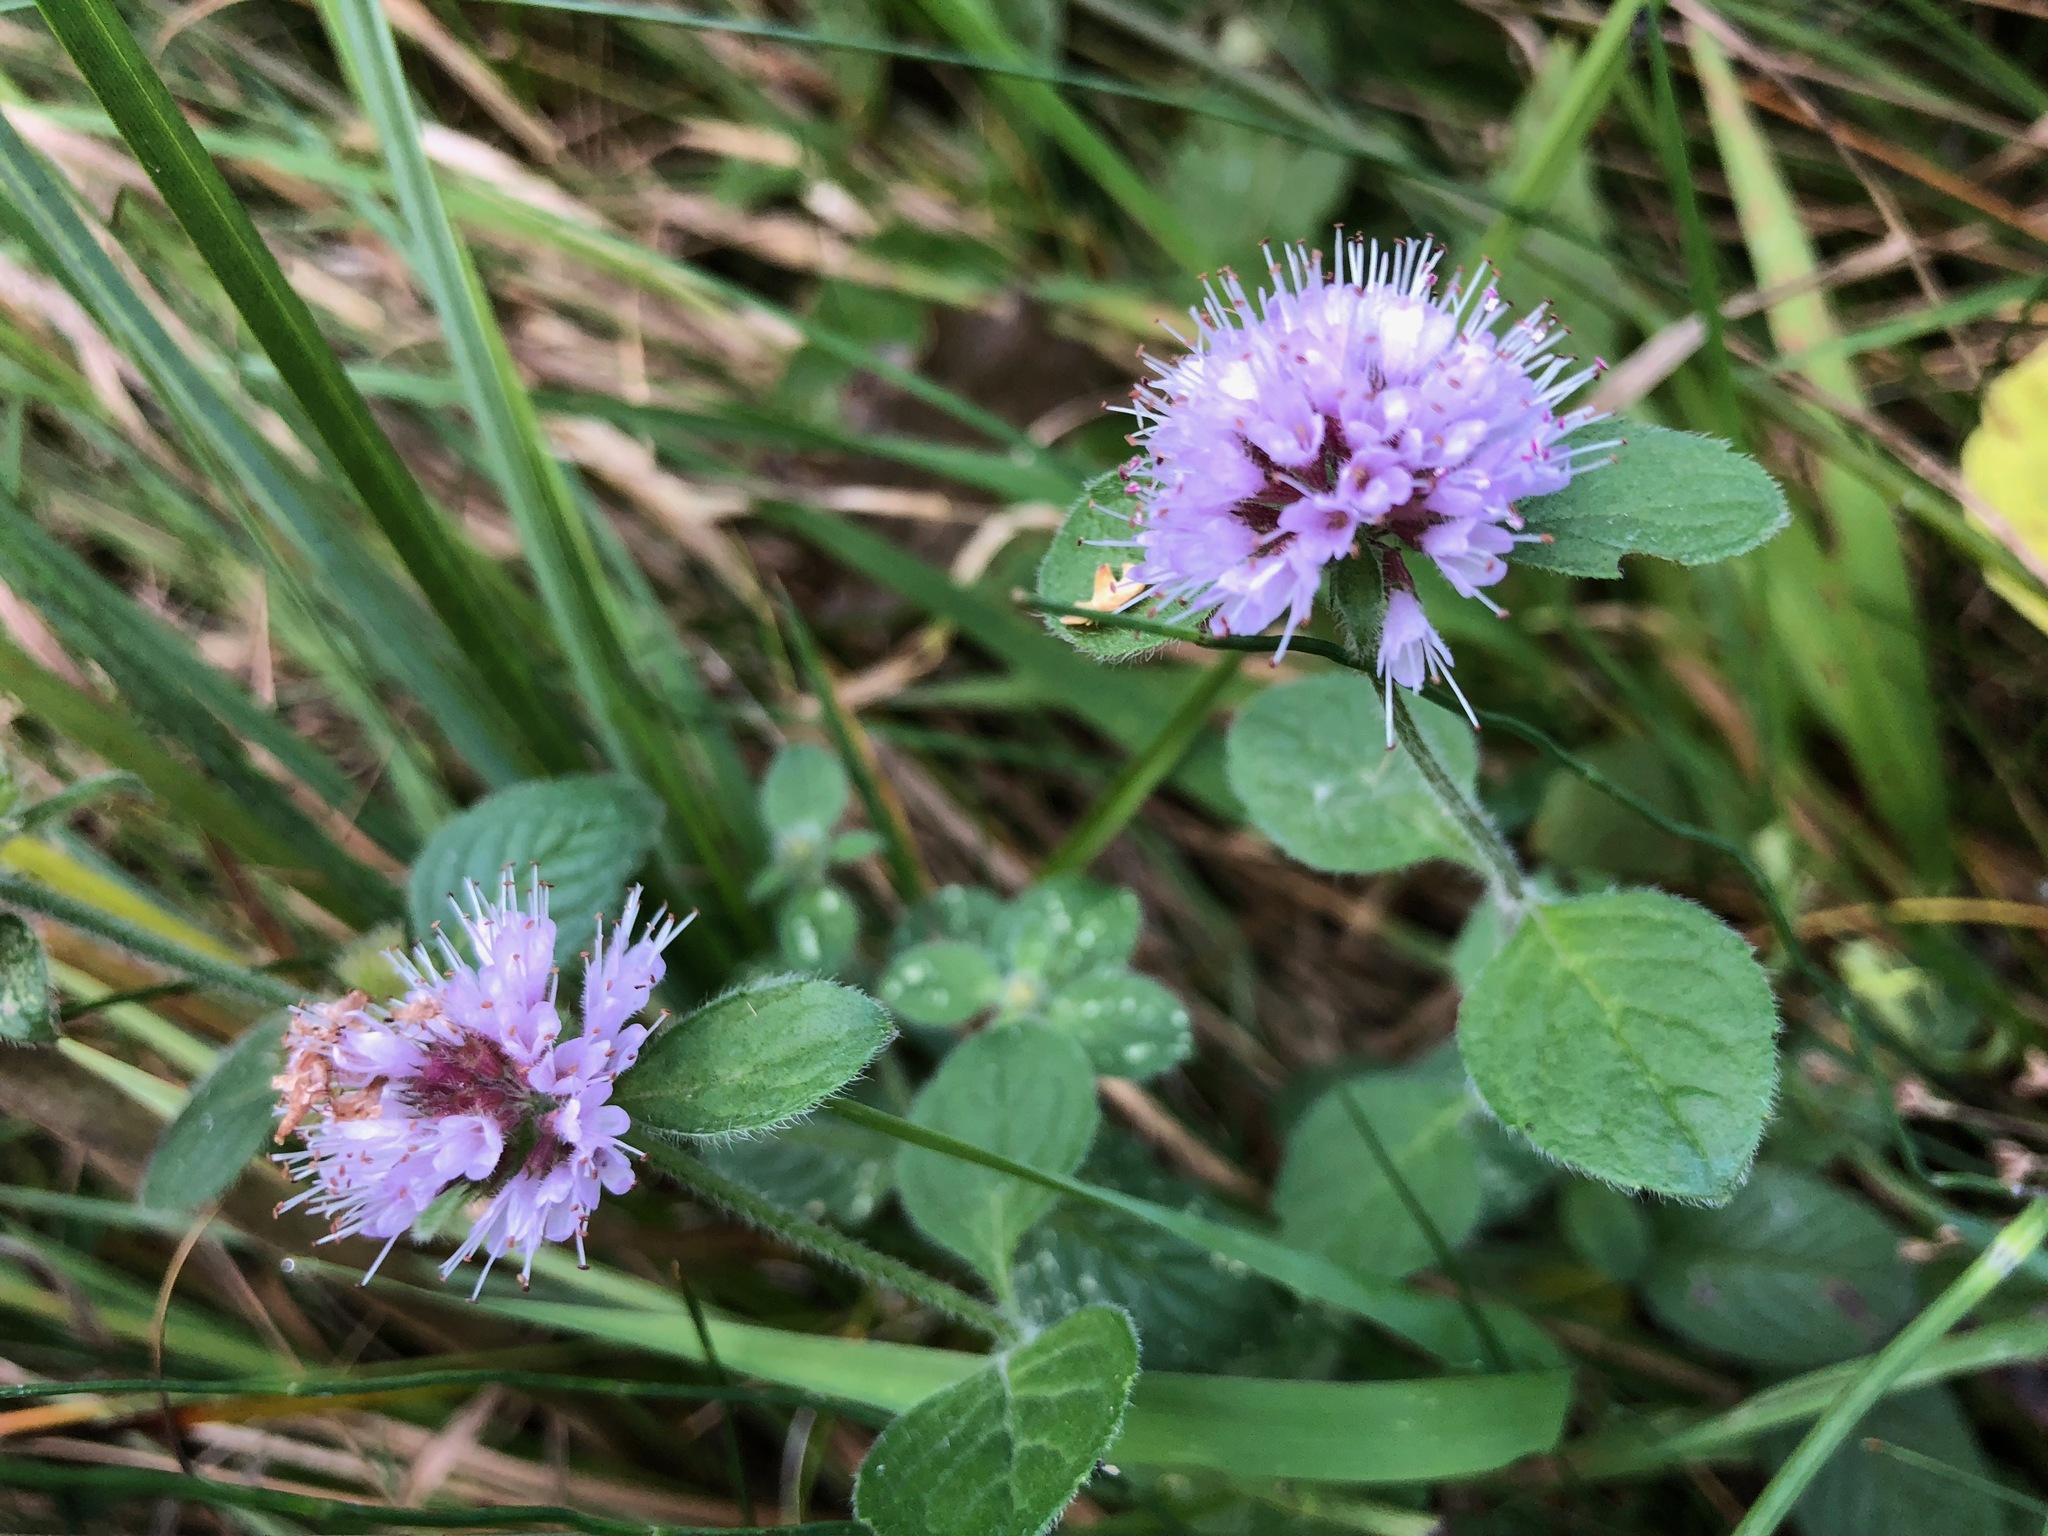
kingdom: Plantae
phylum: Tracheophyta
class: Magnoliopsida
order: Lamiales
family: Lamiaceae
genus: Mentha
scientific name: Mentha aquatica
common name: Water mint
